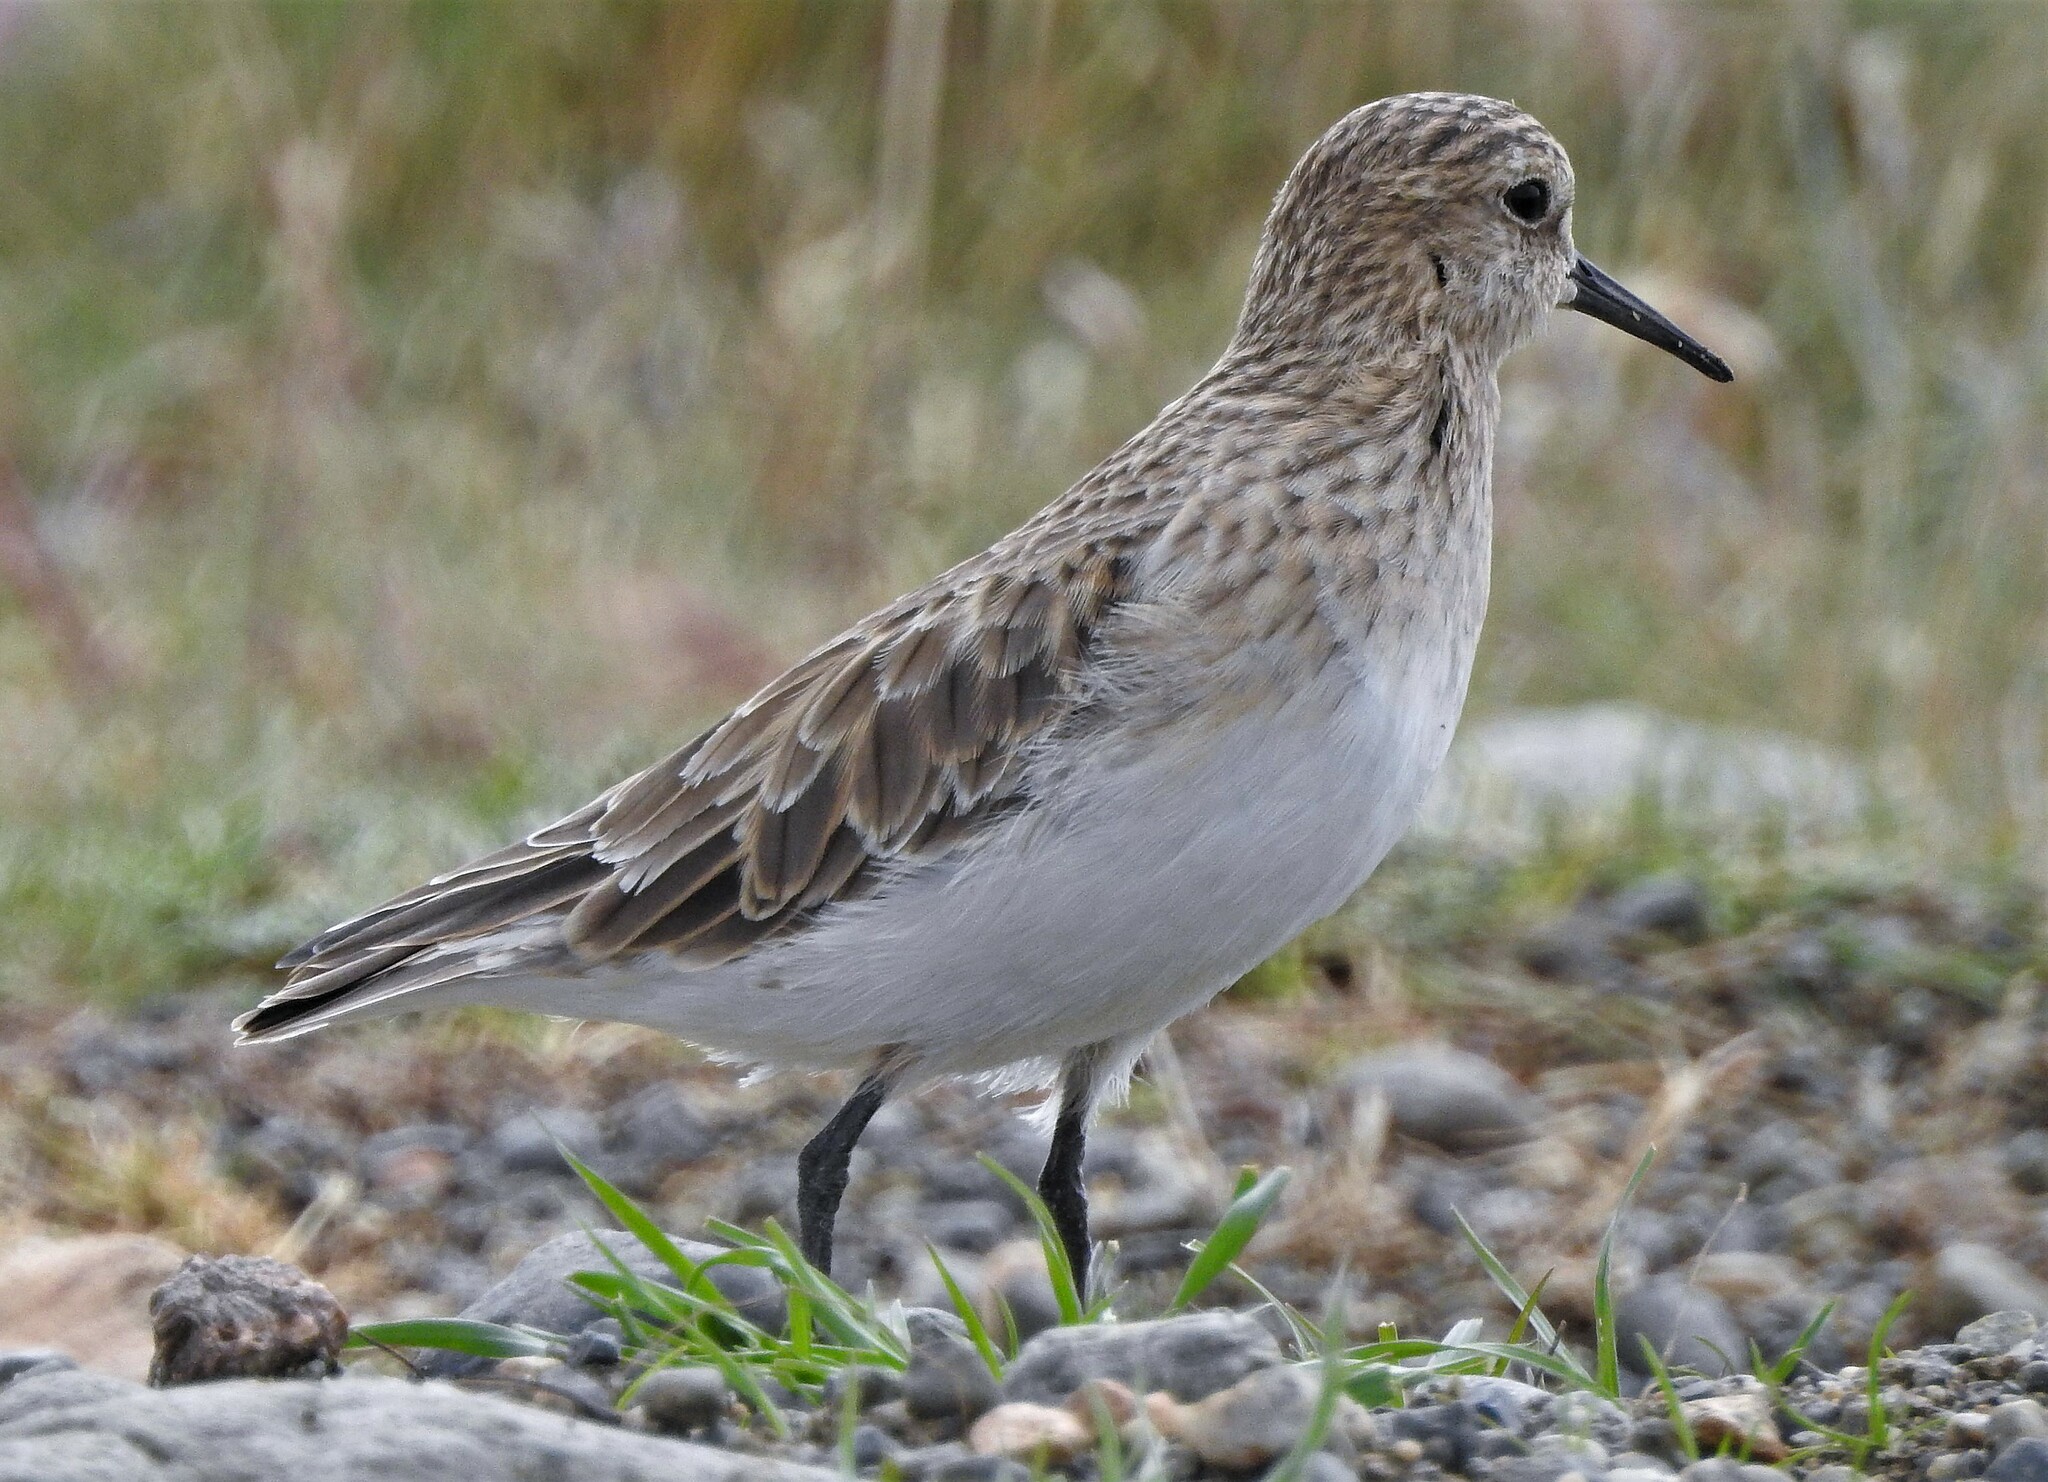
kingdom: Animalia
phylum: Chordata
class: Aves
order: Charadriiformes
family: Scolopacidae
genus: Calidris
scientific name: Calidris bairdii
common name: Baird's sandpiper
